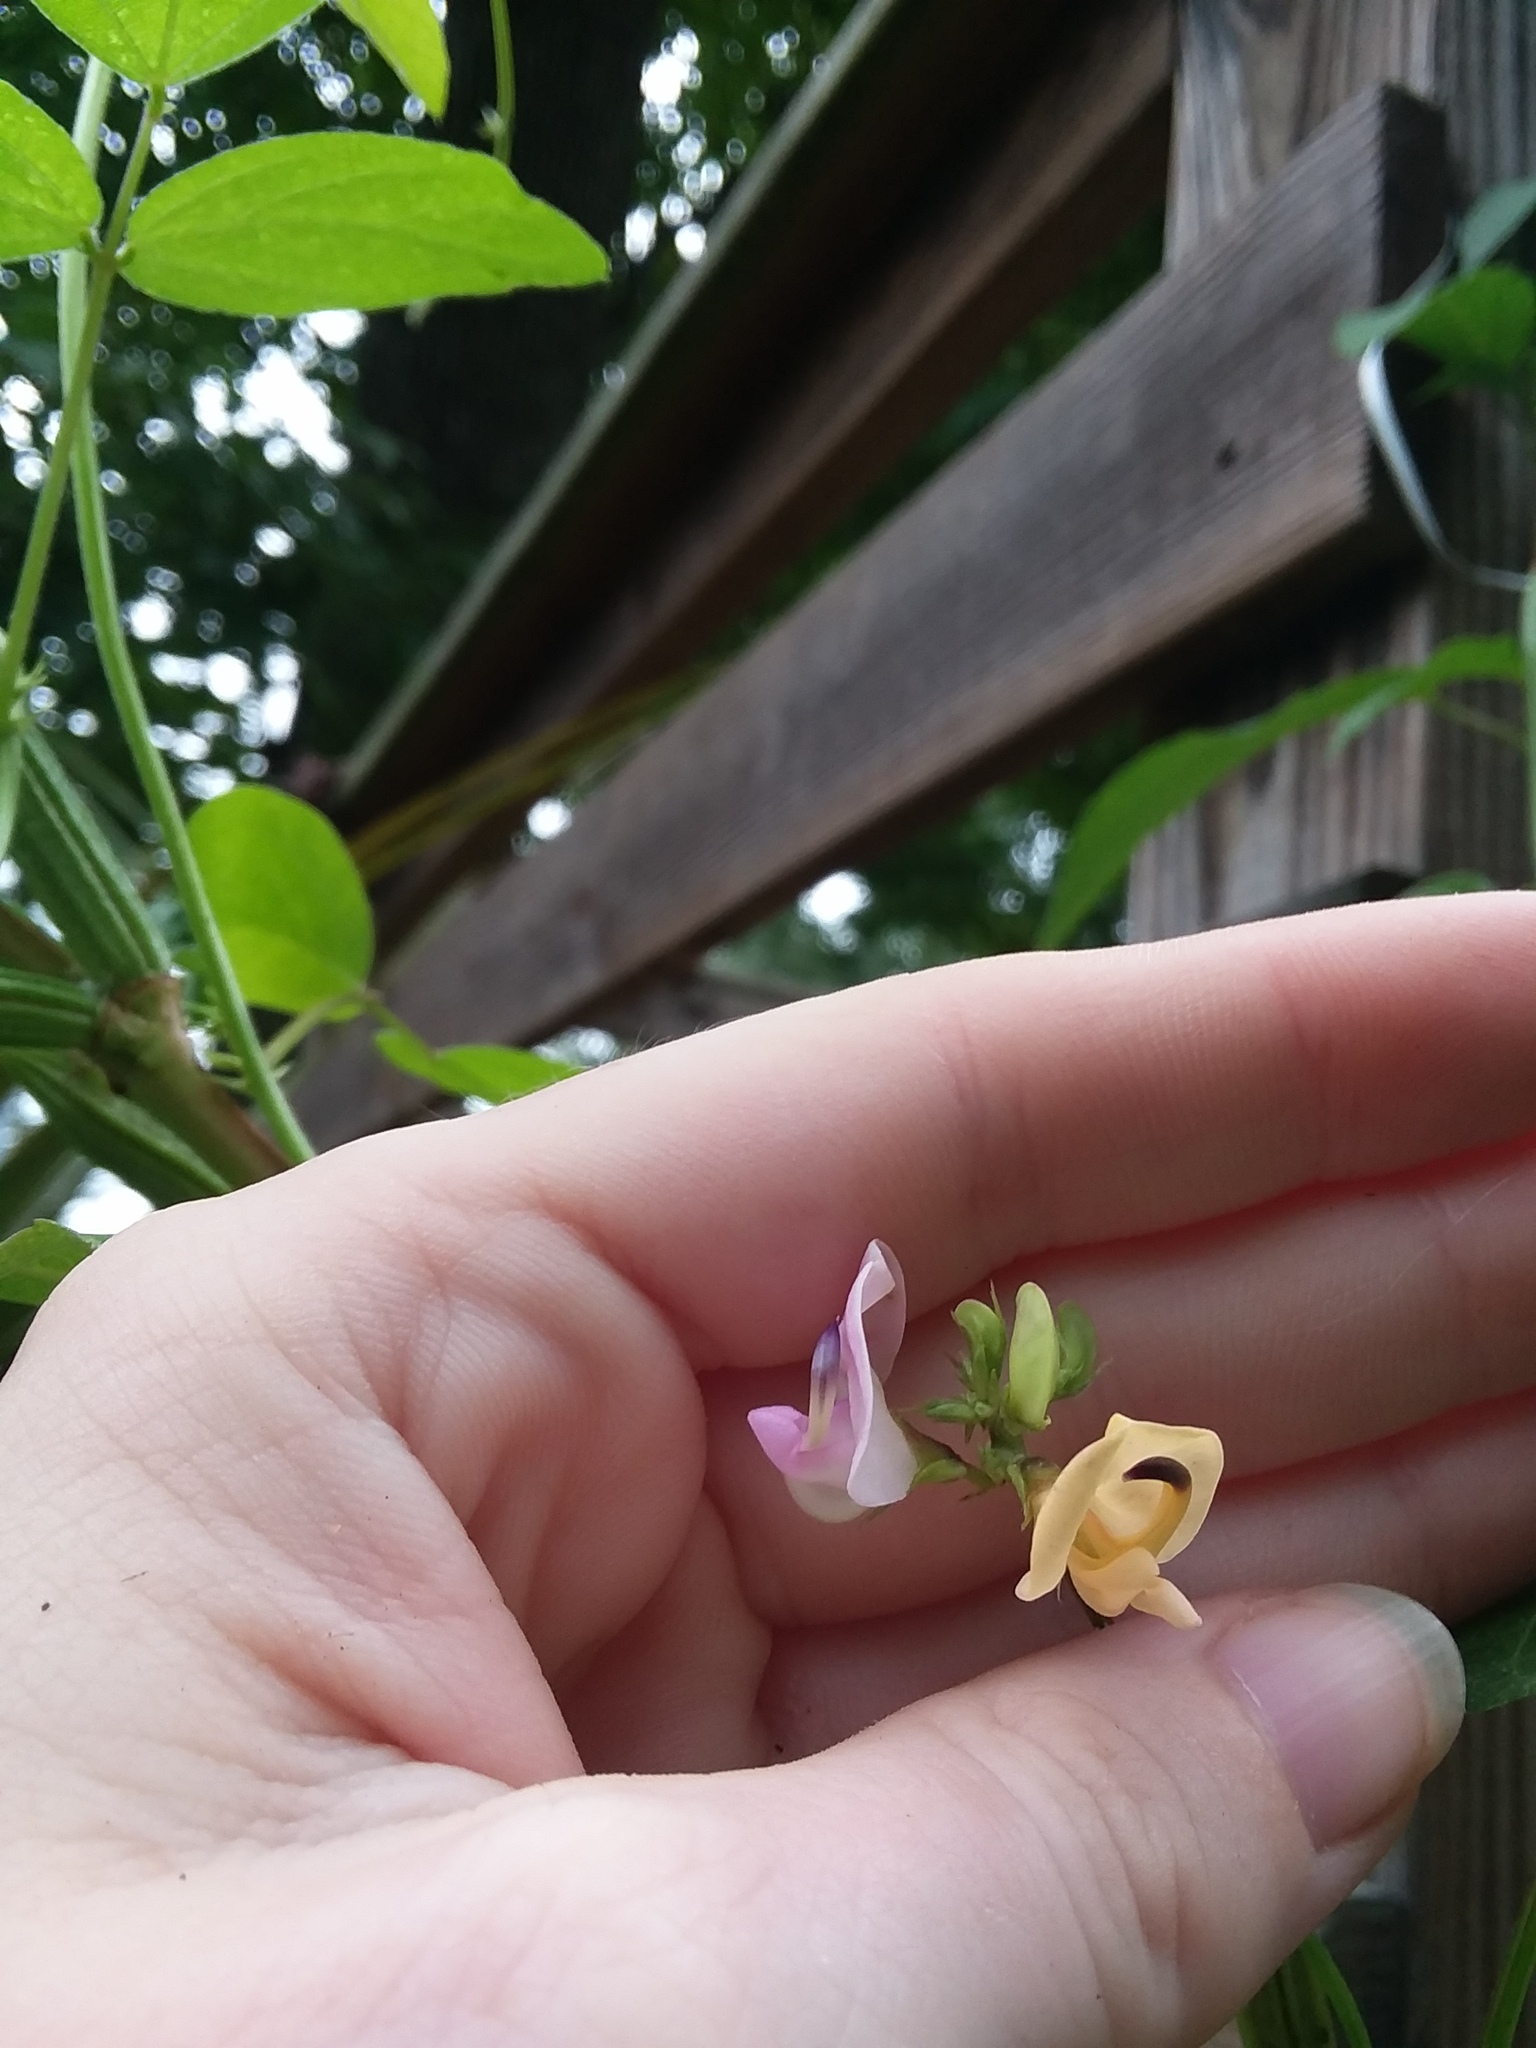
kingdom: Plantae
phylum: Tracheophyta
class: Magnoliopsida
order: Fabales
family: Fabaceae
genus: Strophostyles
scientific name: Strophostyles helvola
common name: Trailing wild bean
